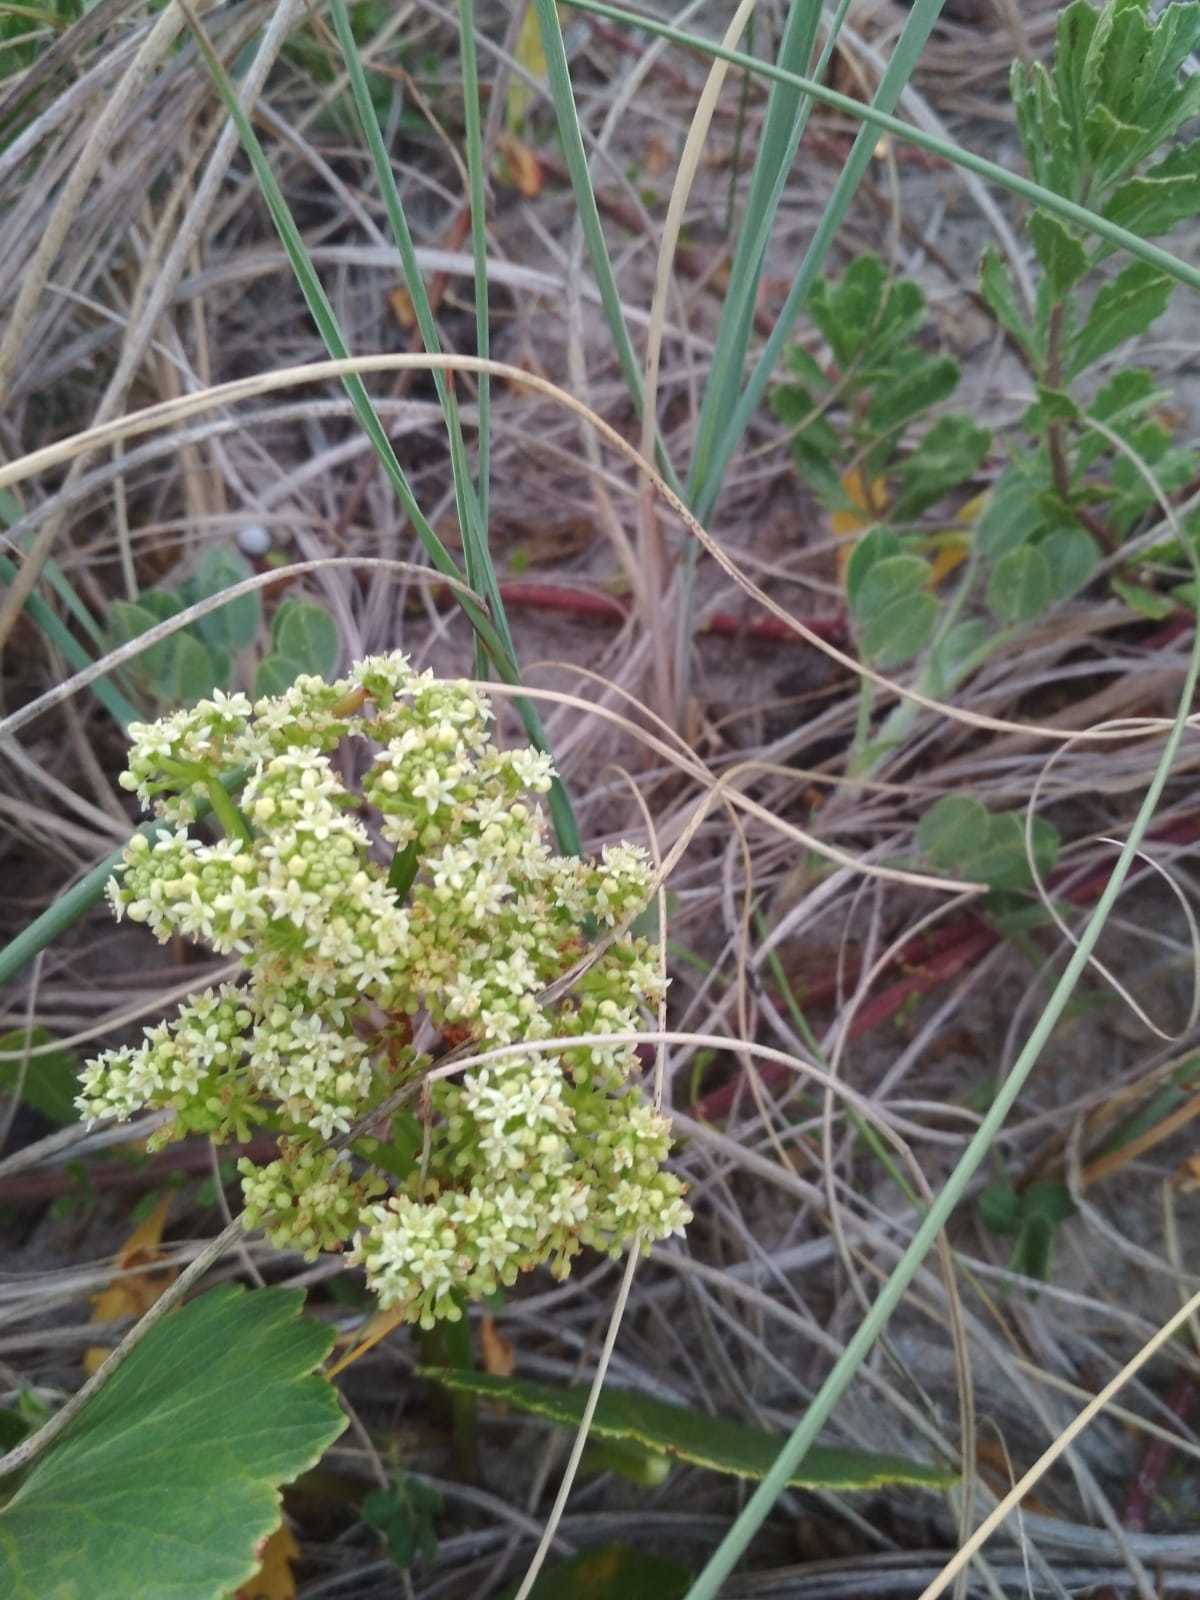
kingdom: Plantae
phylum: Tracheophyta
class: Magnoliopsida
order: Apiales
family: Araliaceae
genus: Hydrocotyle
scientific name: Hydrocotyle bonariensis
